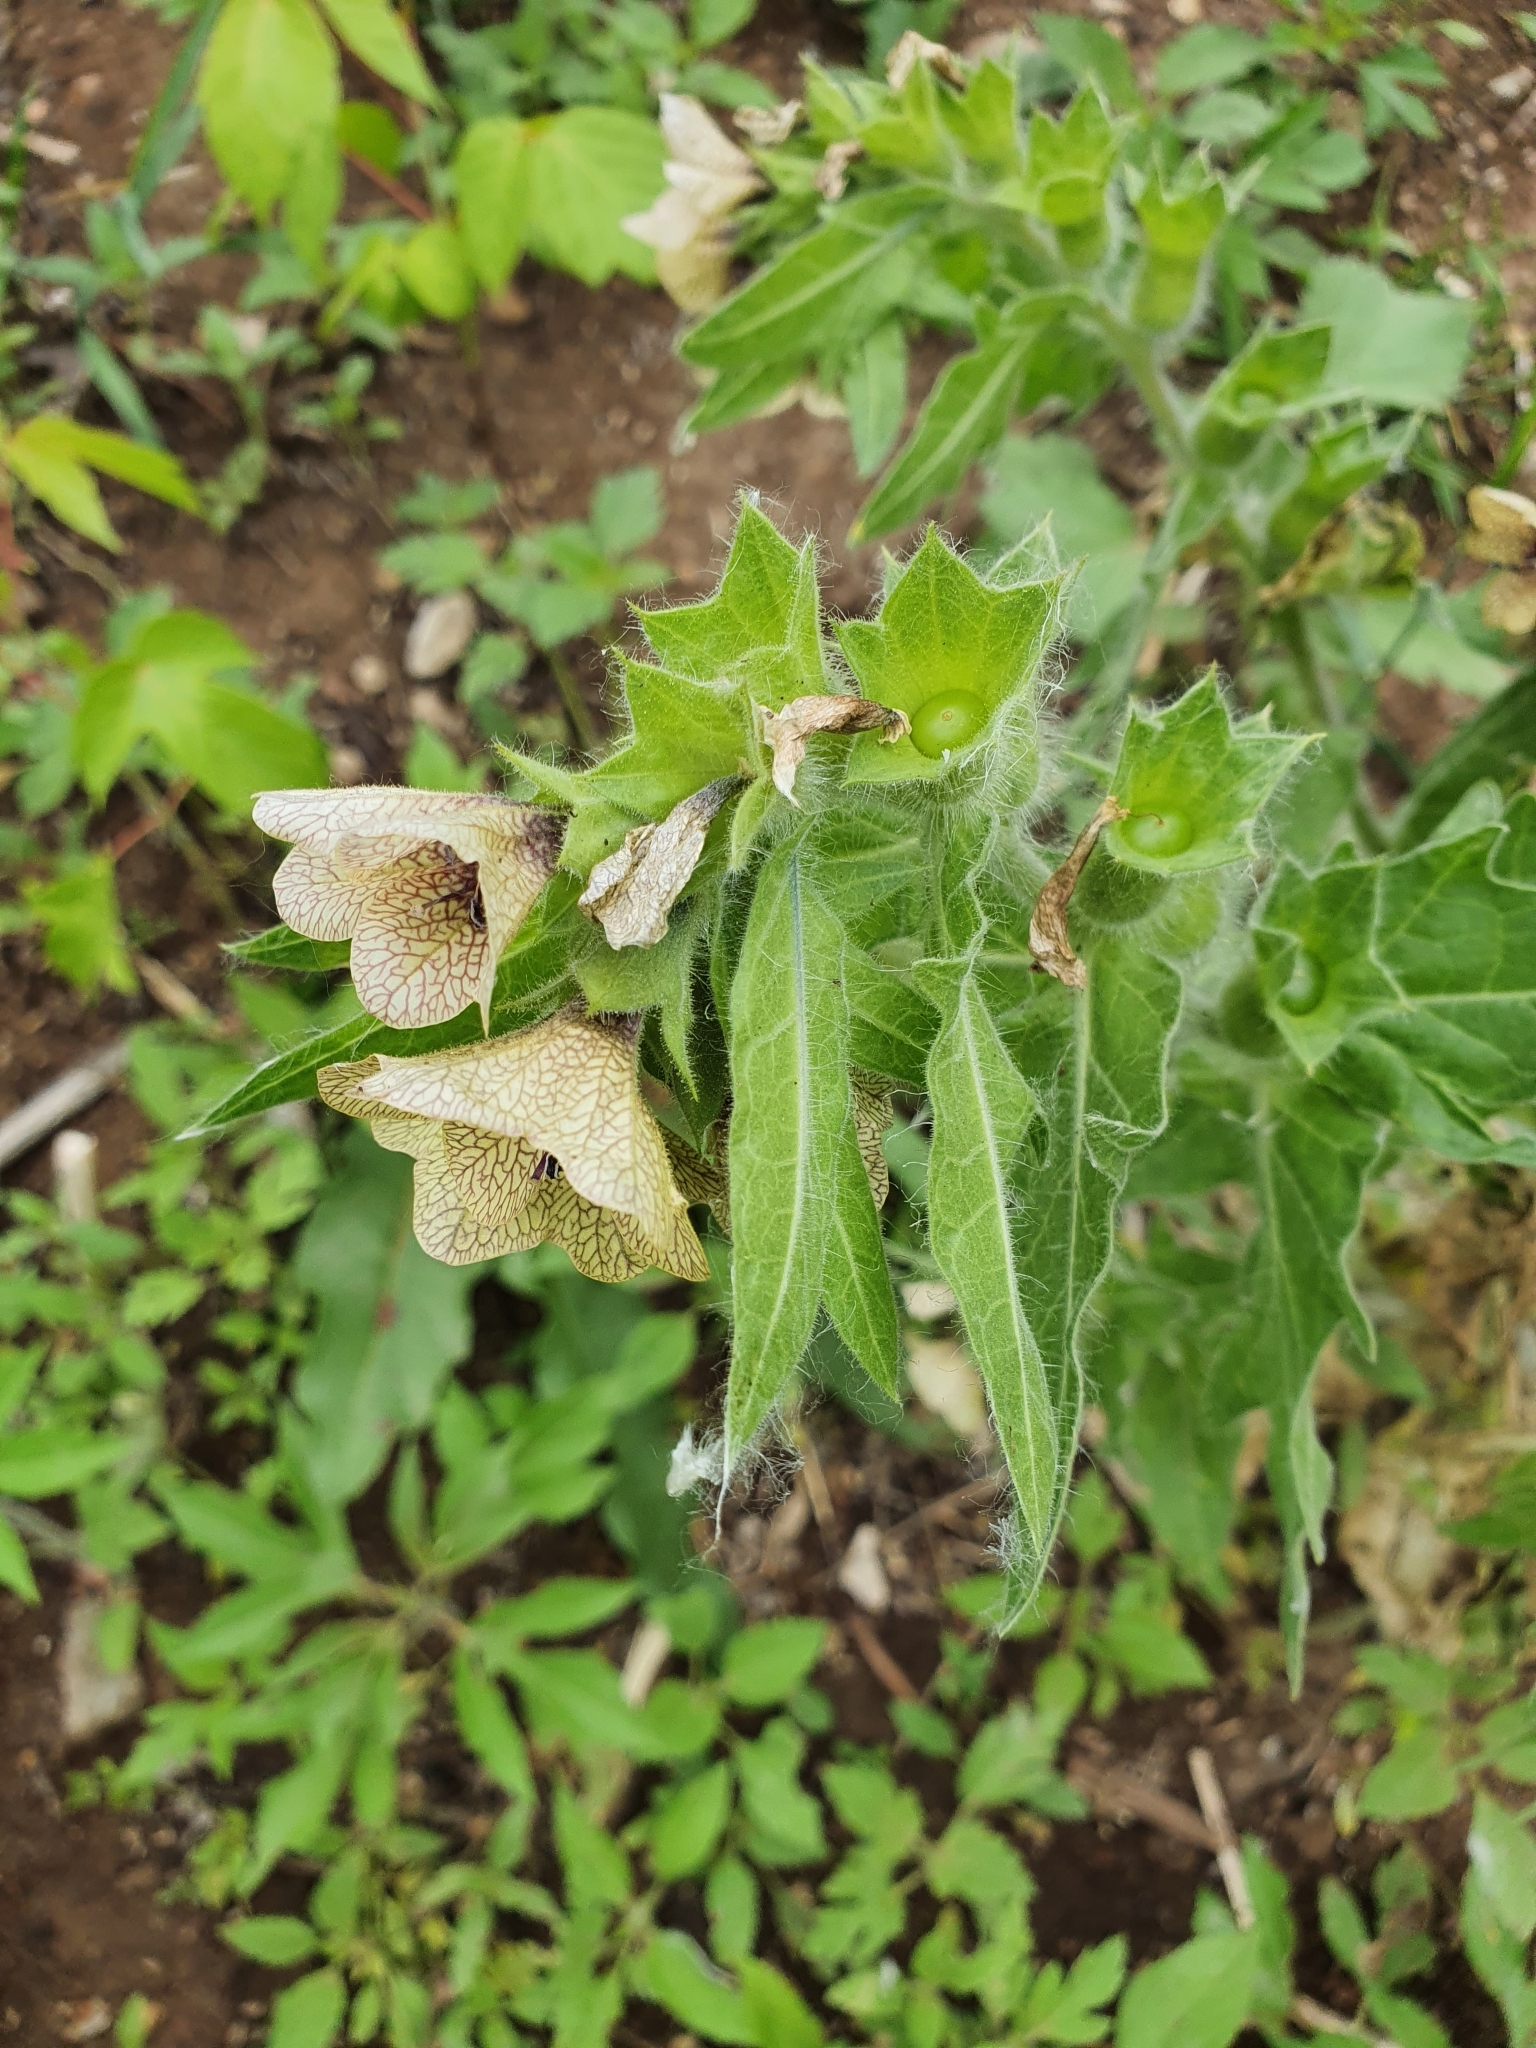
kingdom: Plantae
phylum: Tracheophyta
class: Magnoliopsida
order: Solanales
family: Solanaceae
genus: Hyoscyamus
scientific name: Hyoscyamus niger
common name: Henbane
